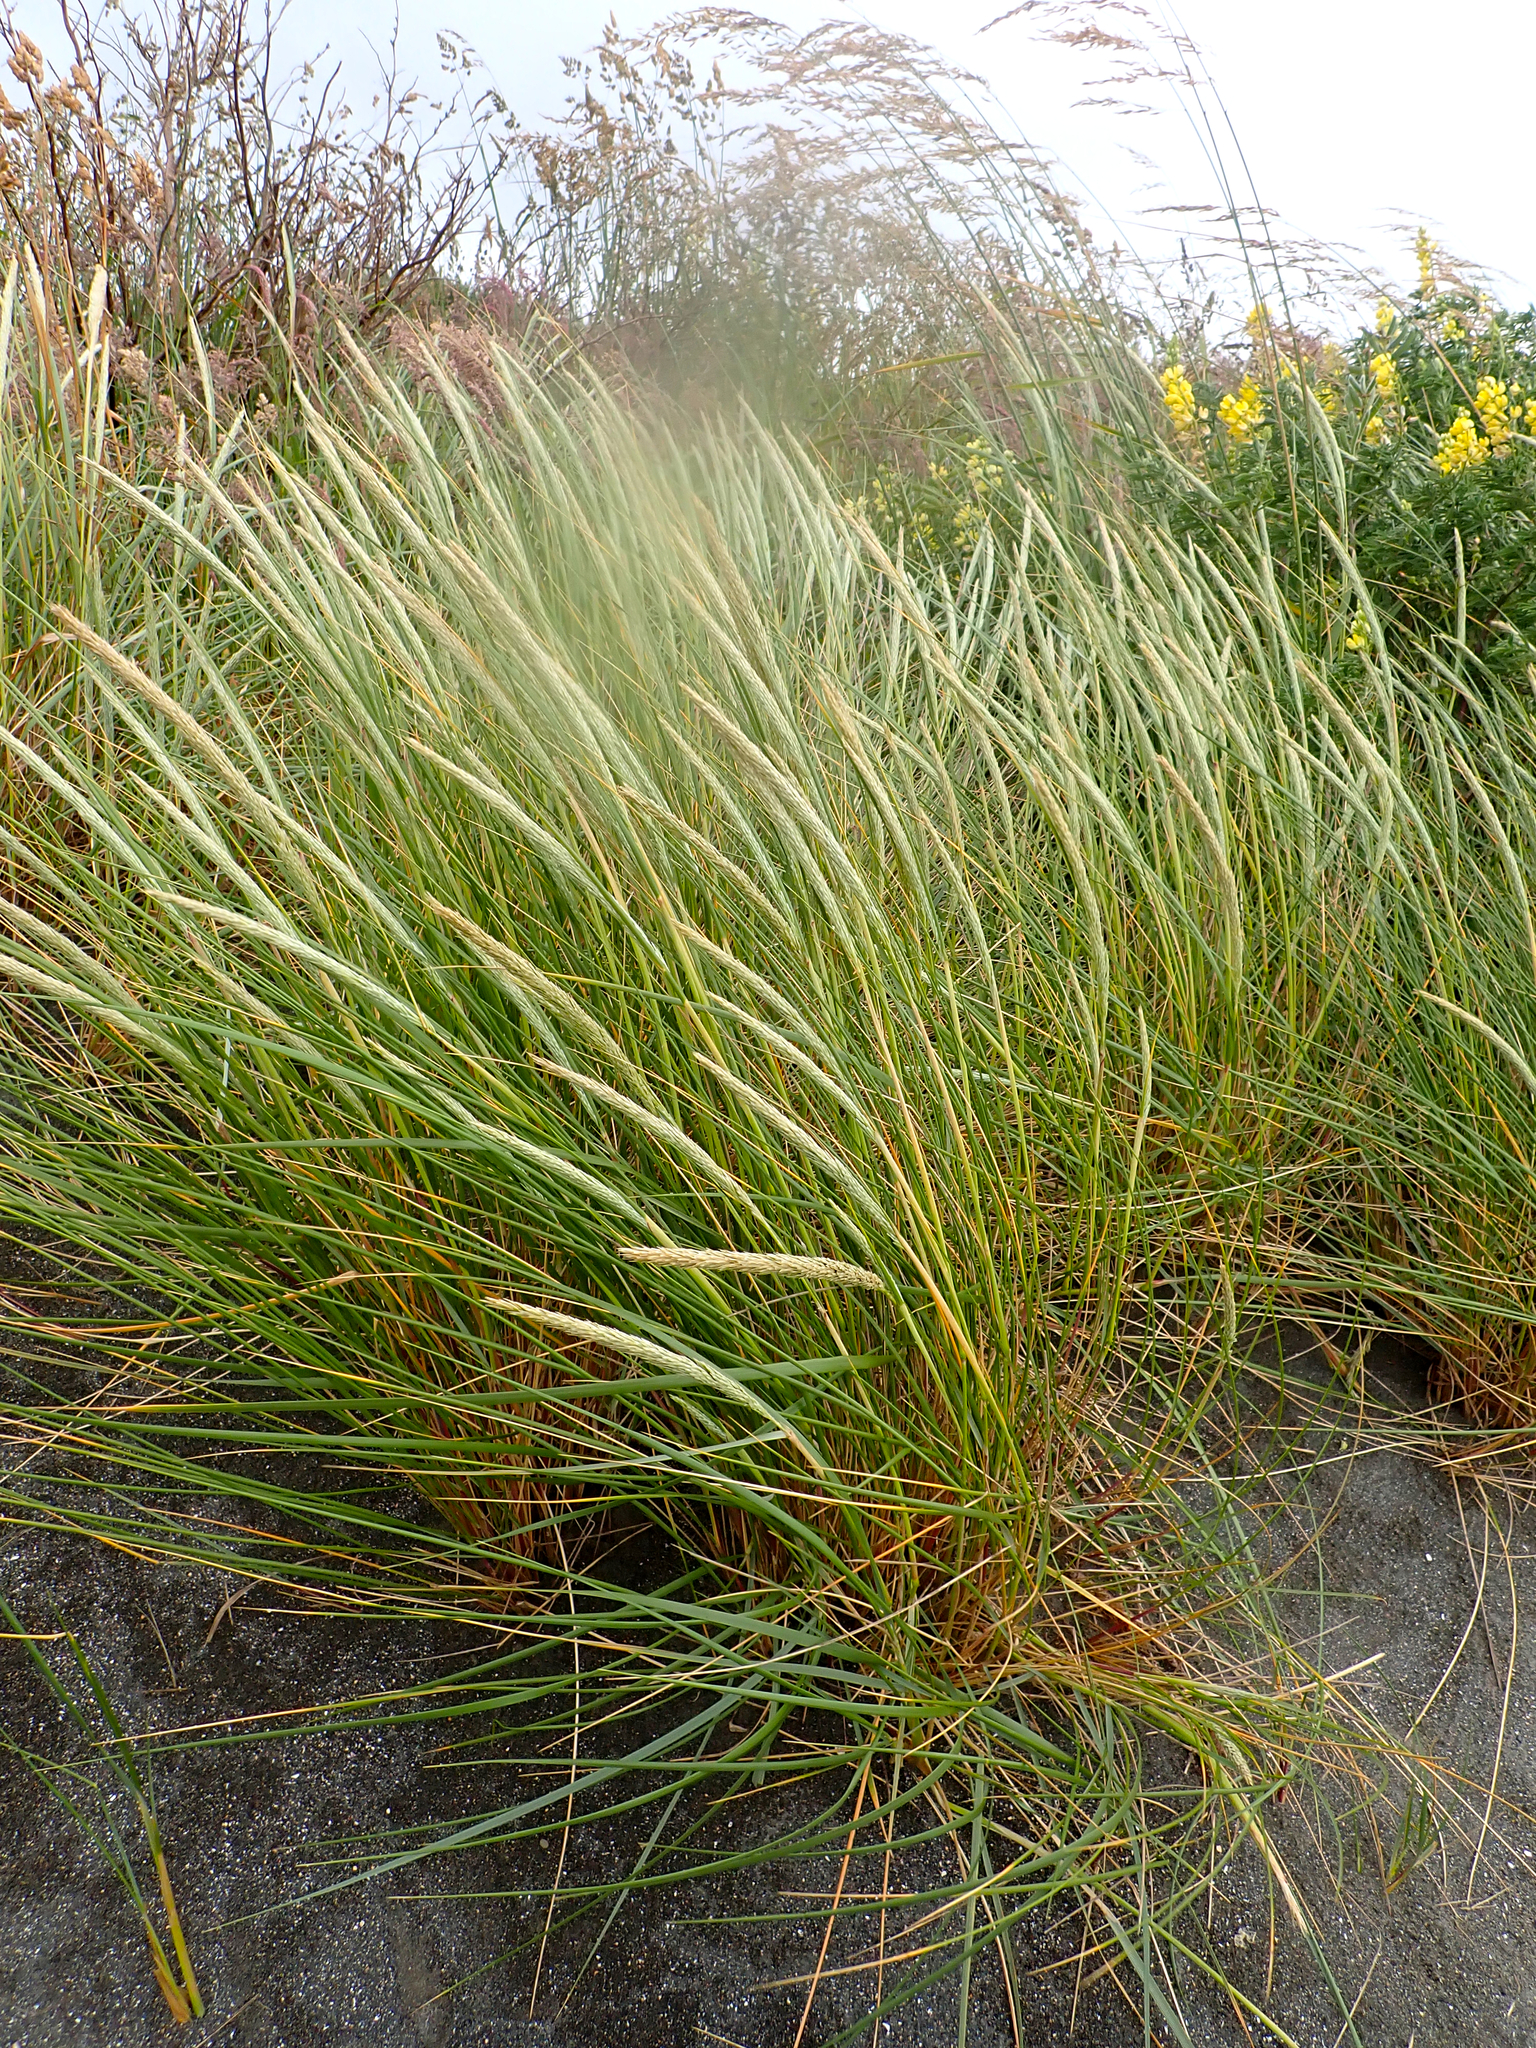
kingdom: Plantae
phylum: Tracheophyta
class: Liliopsida
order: Poales
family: Poaceae
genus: Calamagrostis
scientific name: Calamagrostis arenaria
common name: European beachgrass
